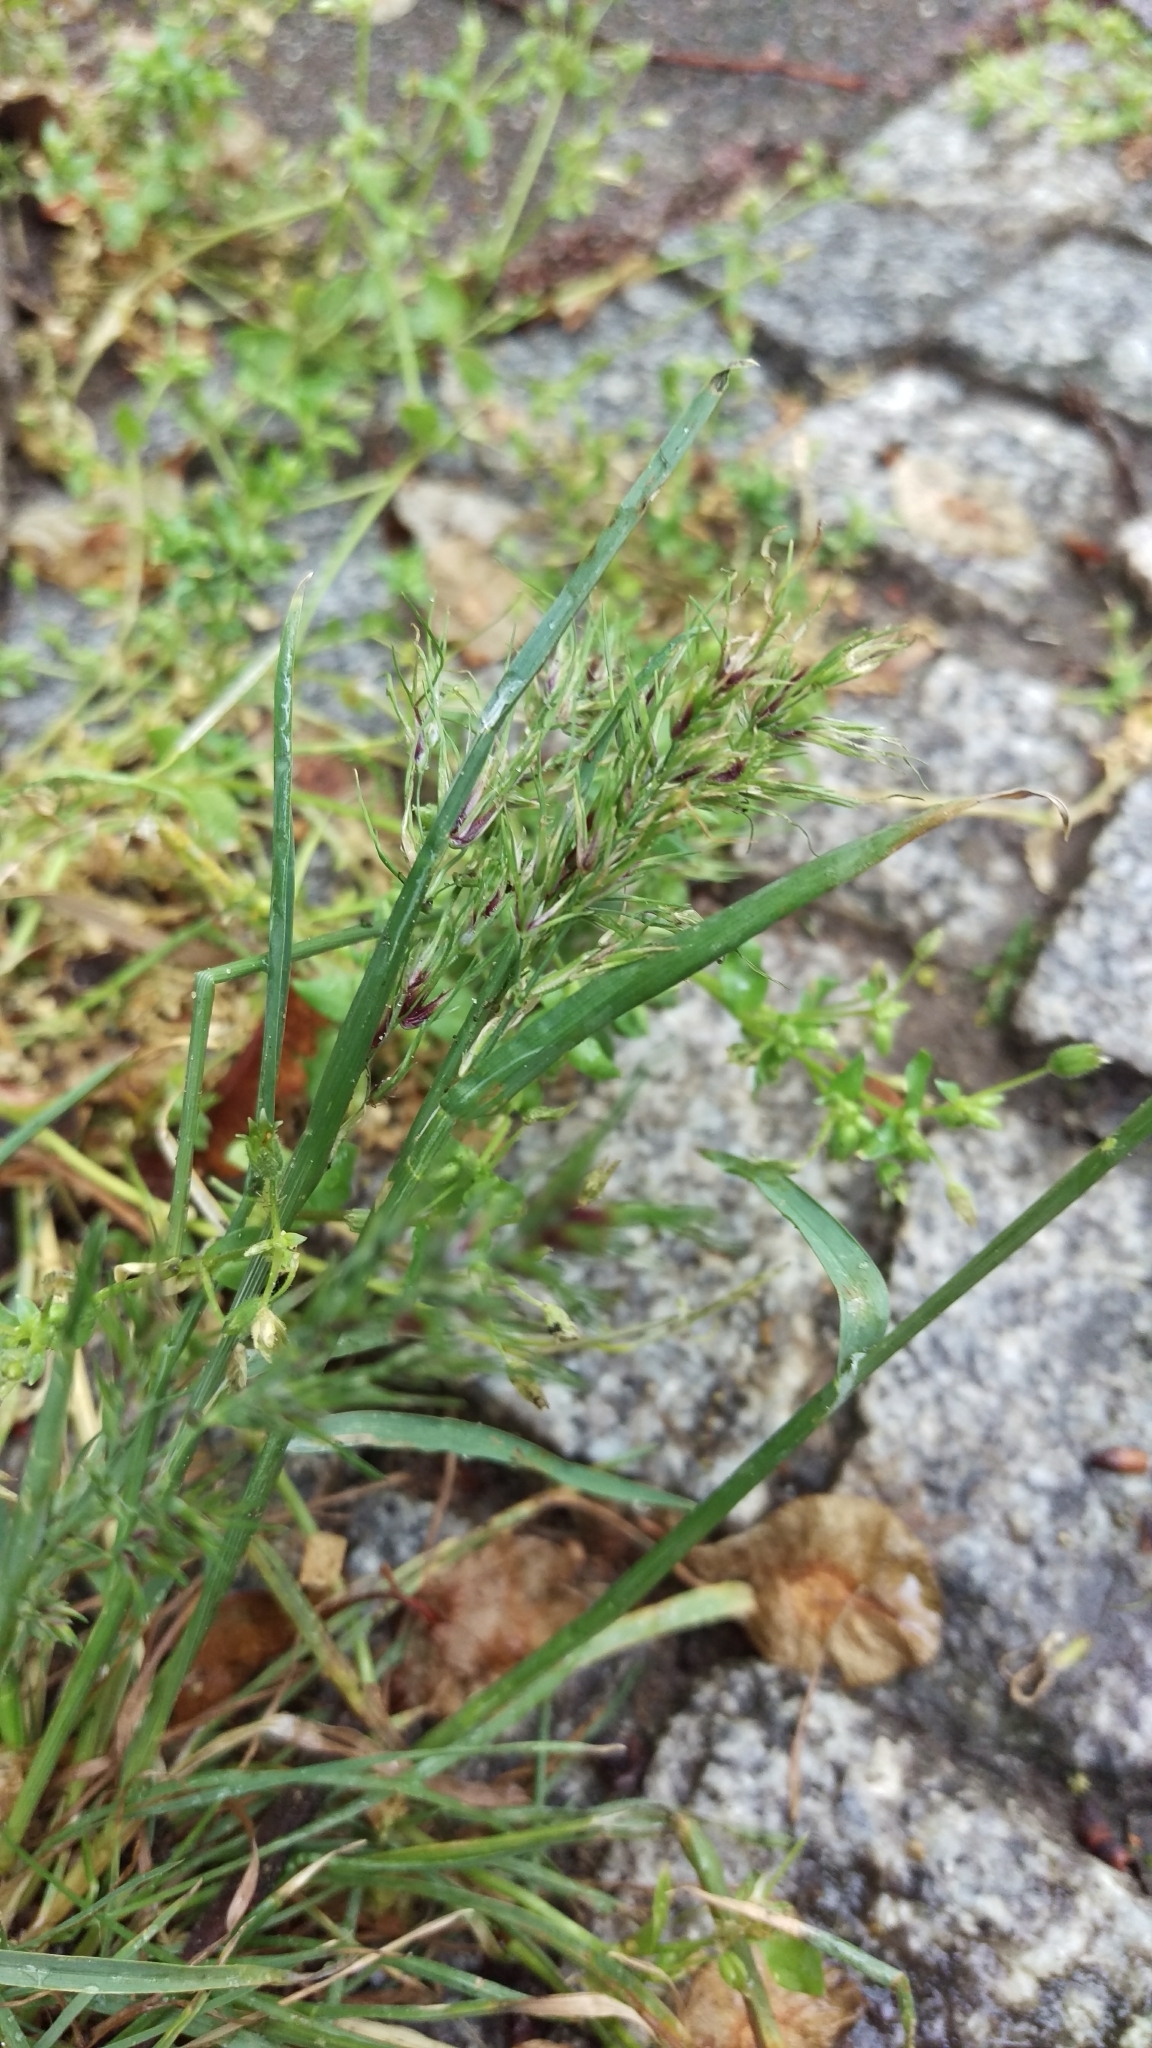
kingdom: Plantae
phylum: Tracheophyta
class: Liliopsida
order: Poales
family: Poaceae
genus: Poa
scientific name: Poa bulbosa
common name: Bulbous bluegrass
